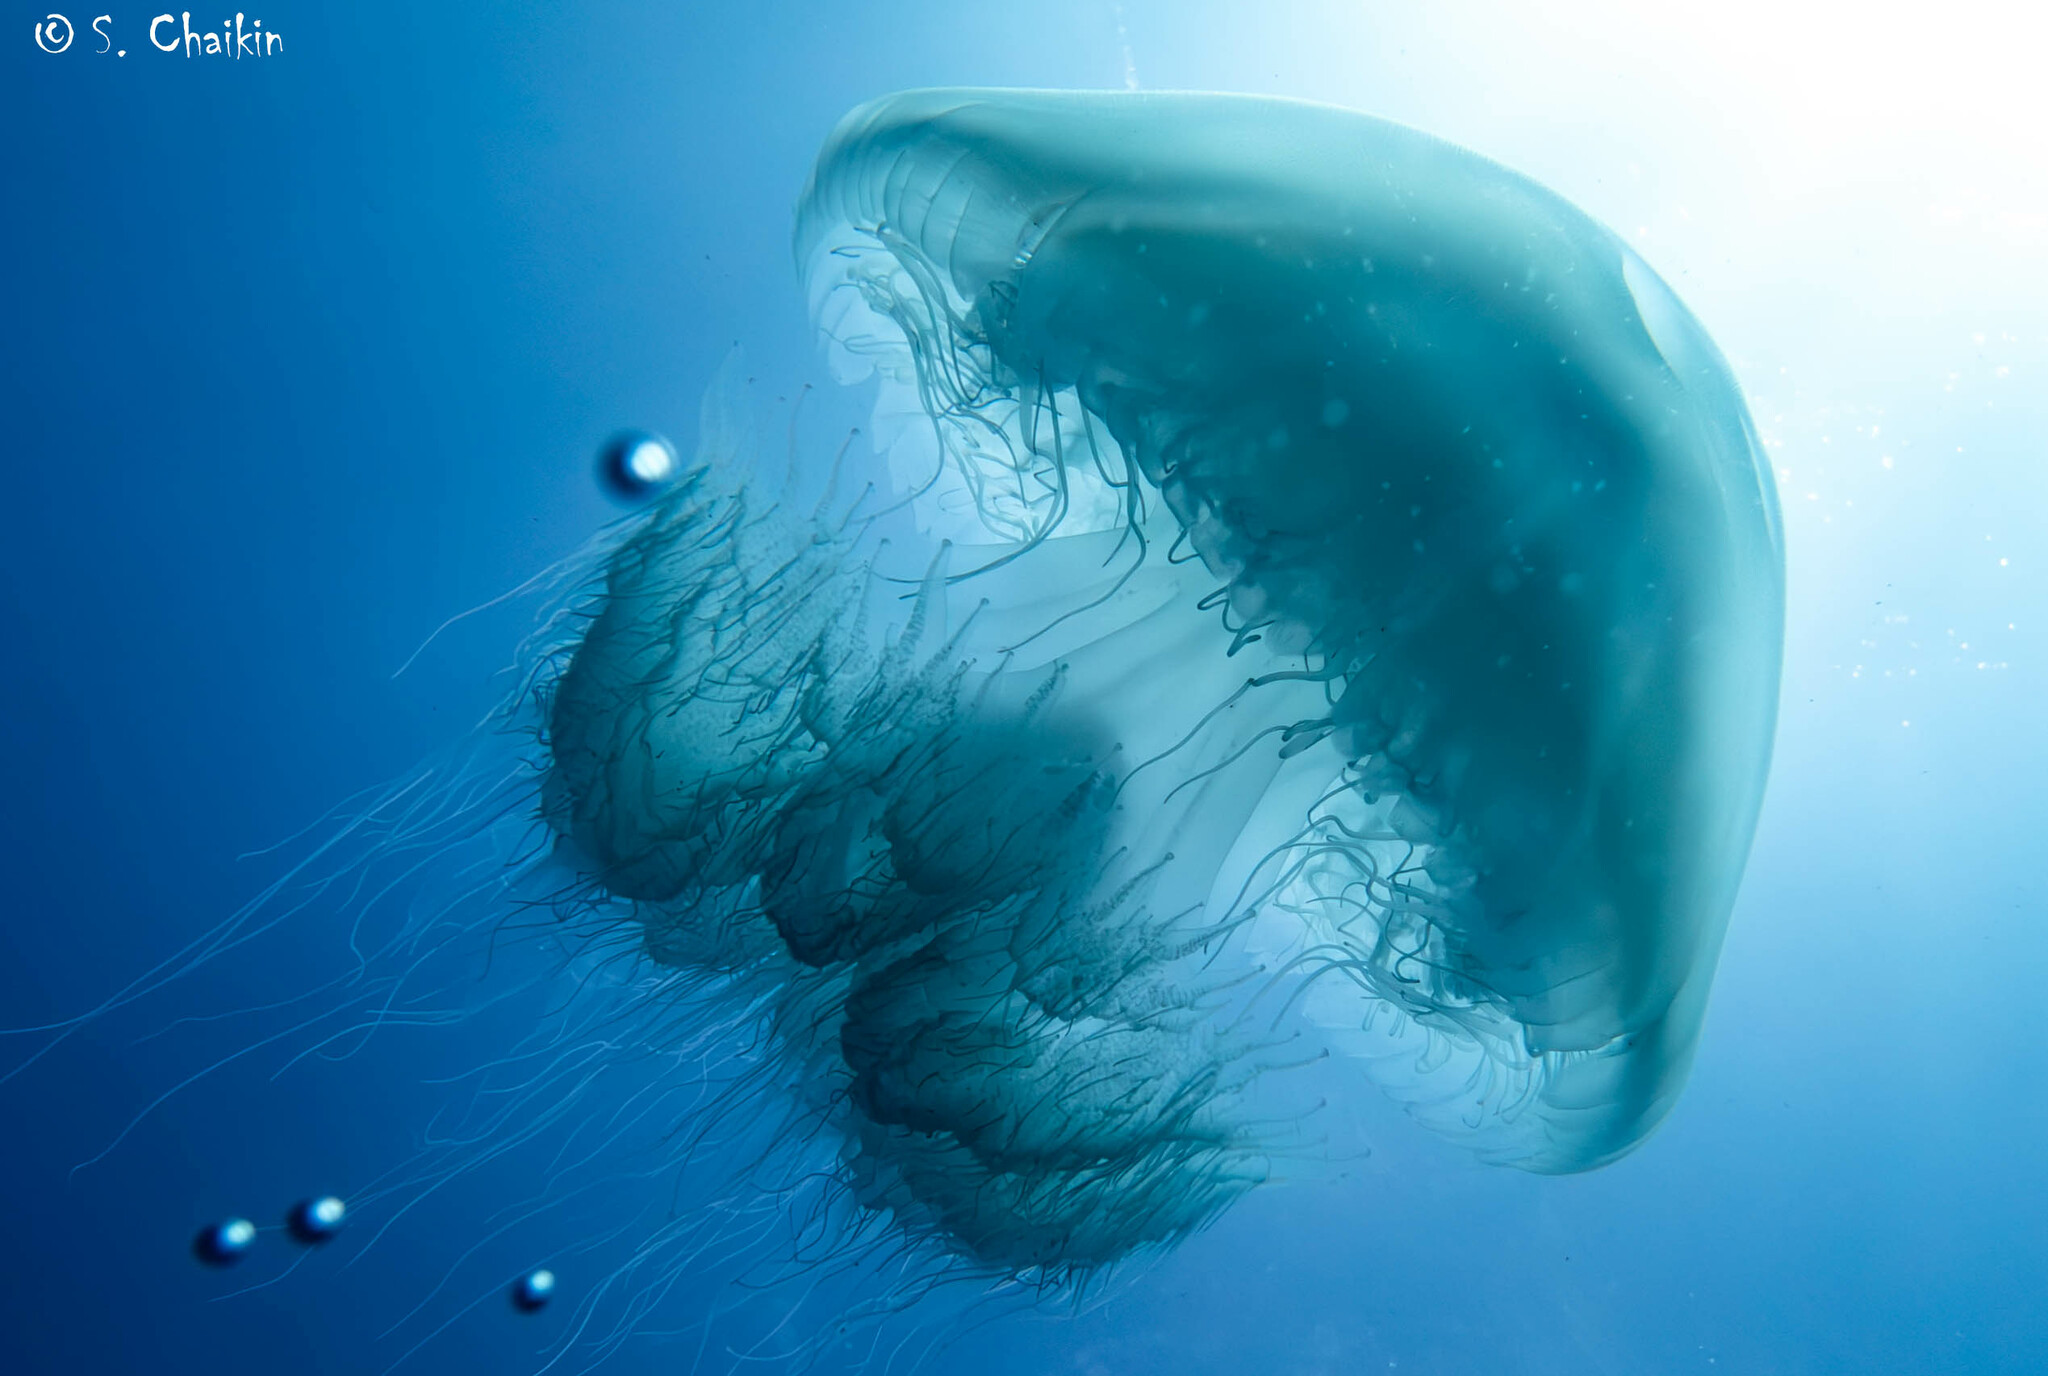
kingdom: Animalia
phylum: Cnidaria
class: Scyphozoa
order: Rhizostomeae
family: Rhizostomatidae
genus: Rhopilema
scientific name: Rhopilema nomadica
